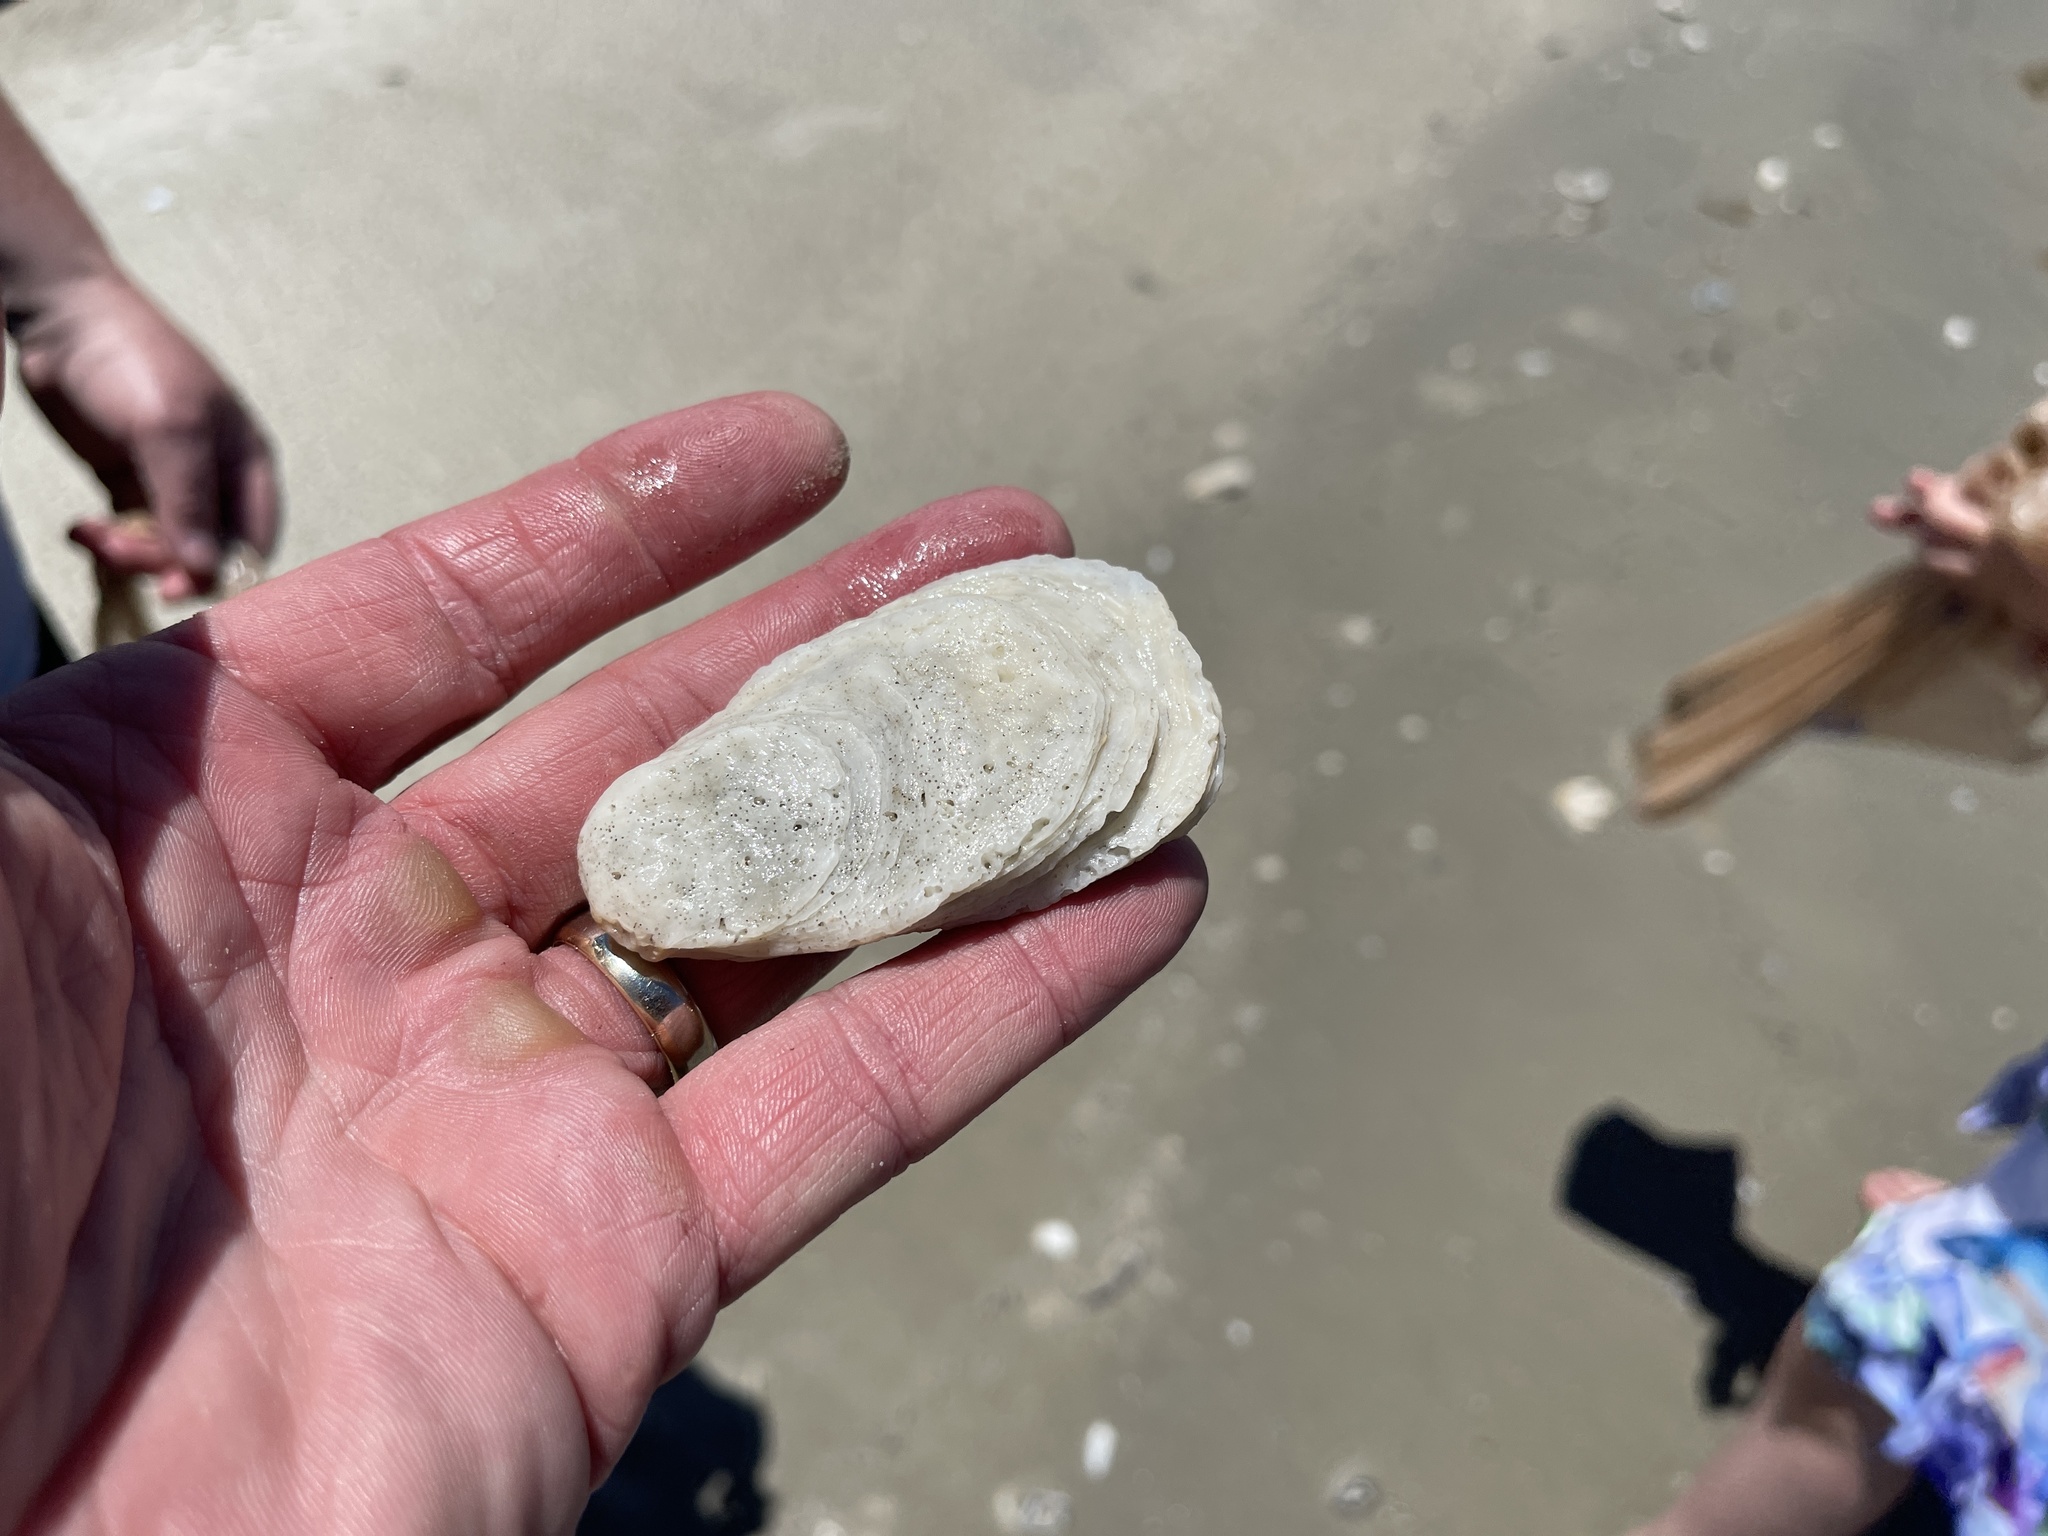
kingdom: Animalia
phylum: Mollusca
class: Bivalvia
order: Ostreida
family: Ostreidae
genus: Crassostrea
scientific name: Crassostrea virginica
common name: American oyster
